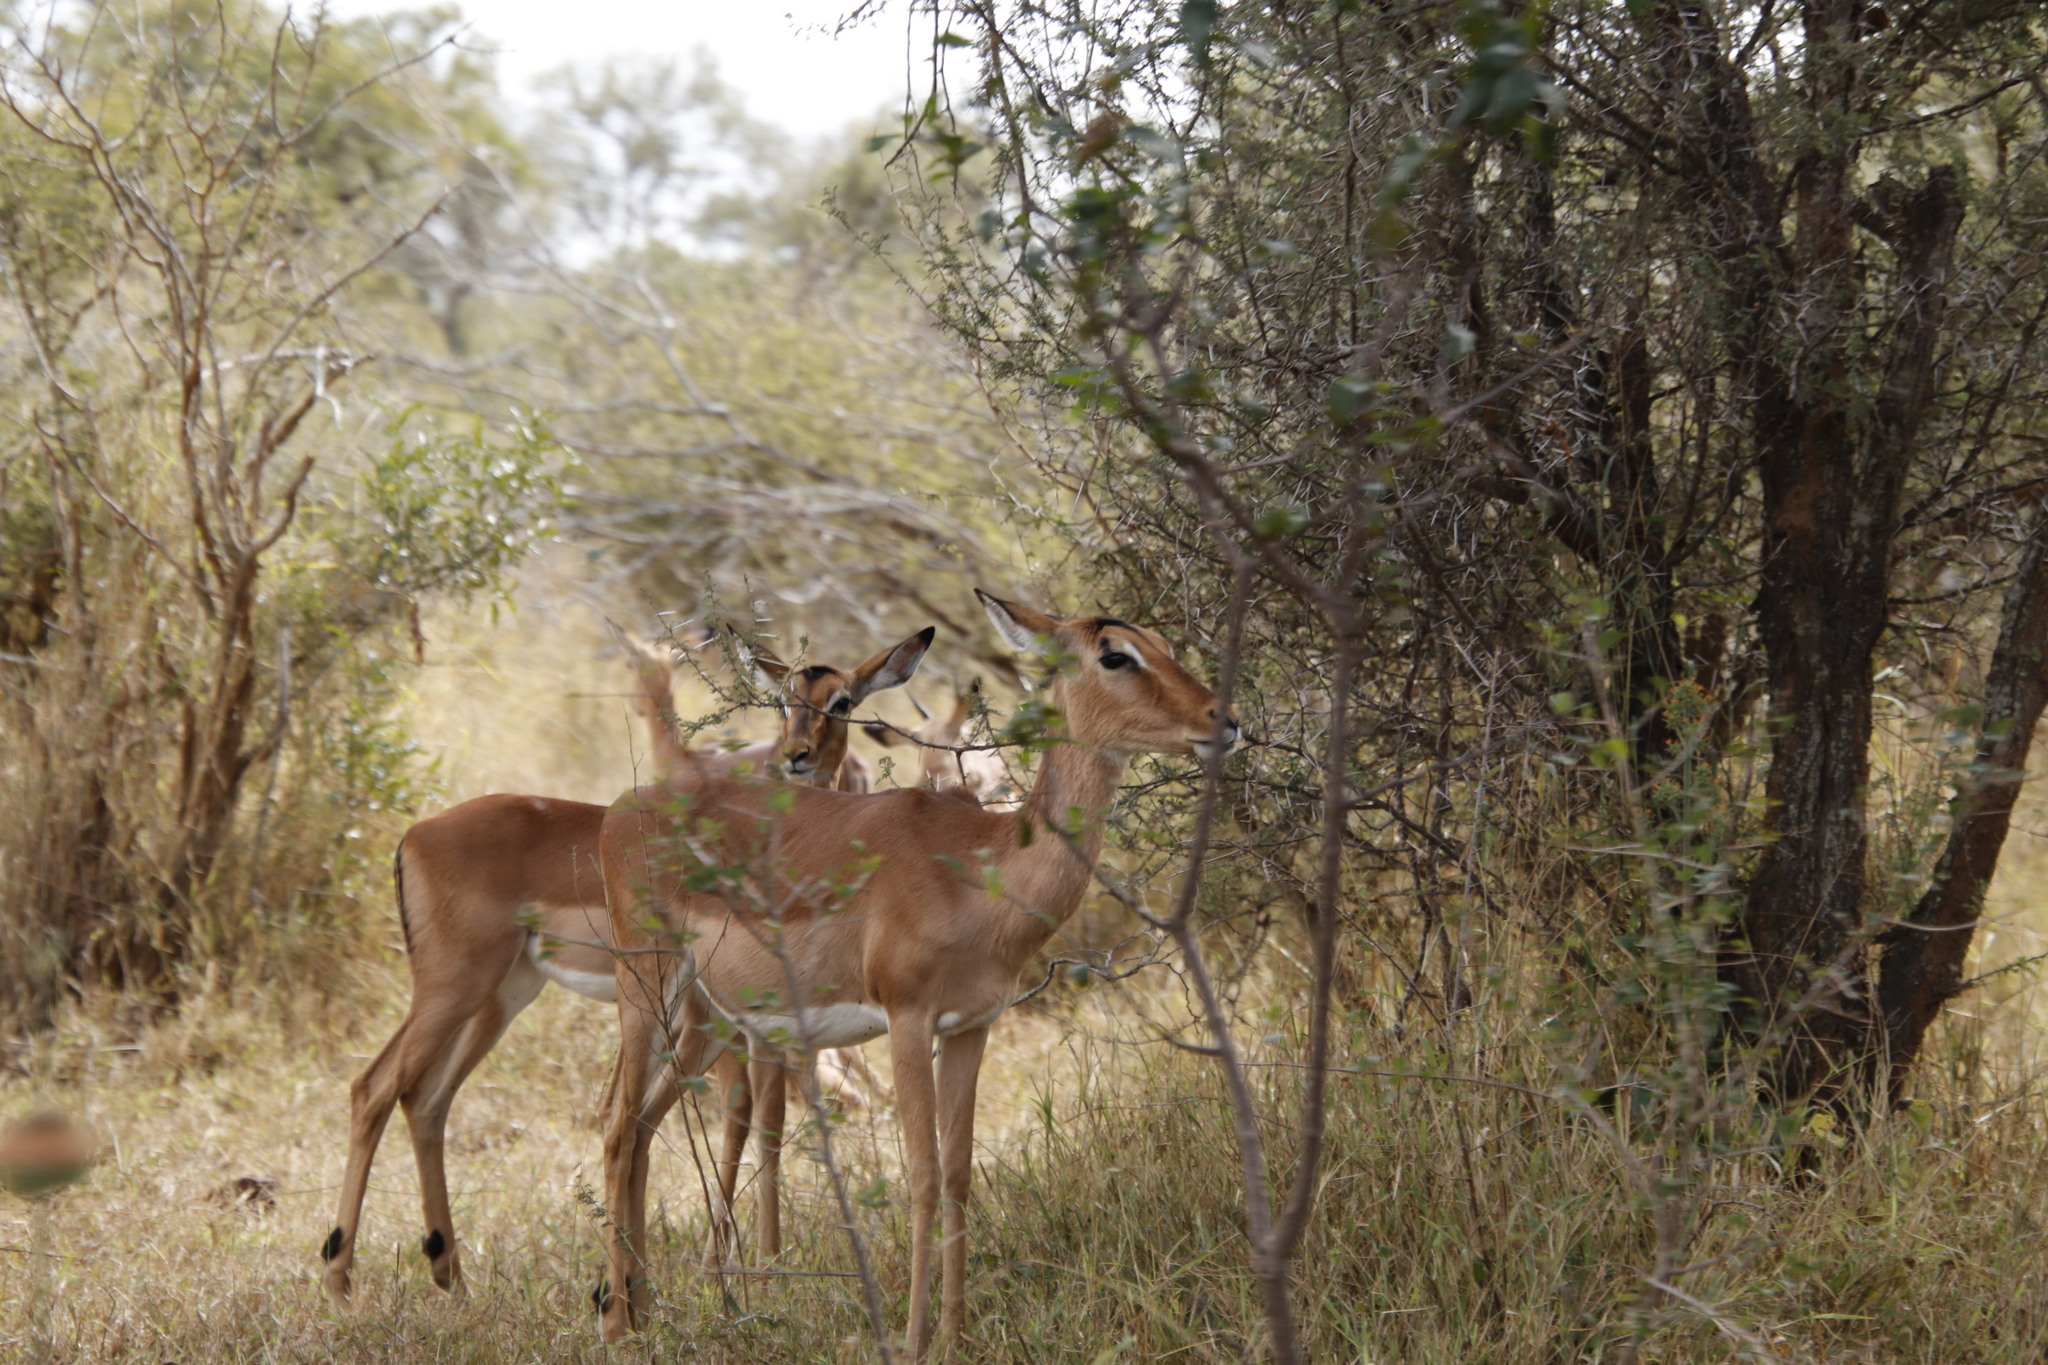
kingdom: Animalia
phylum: Chordata
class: Mammalia
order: Artiodactyla
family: Bovidae
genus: Aepyceros
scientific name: Aepyceros melampus
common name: Impala
